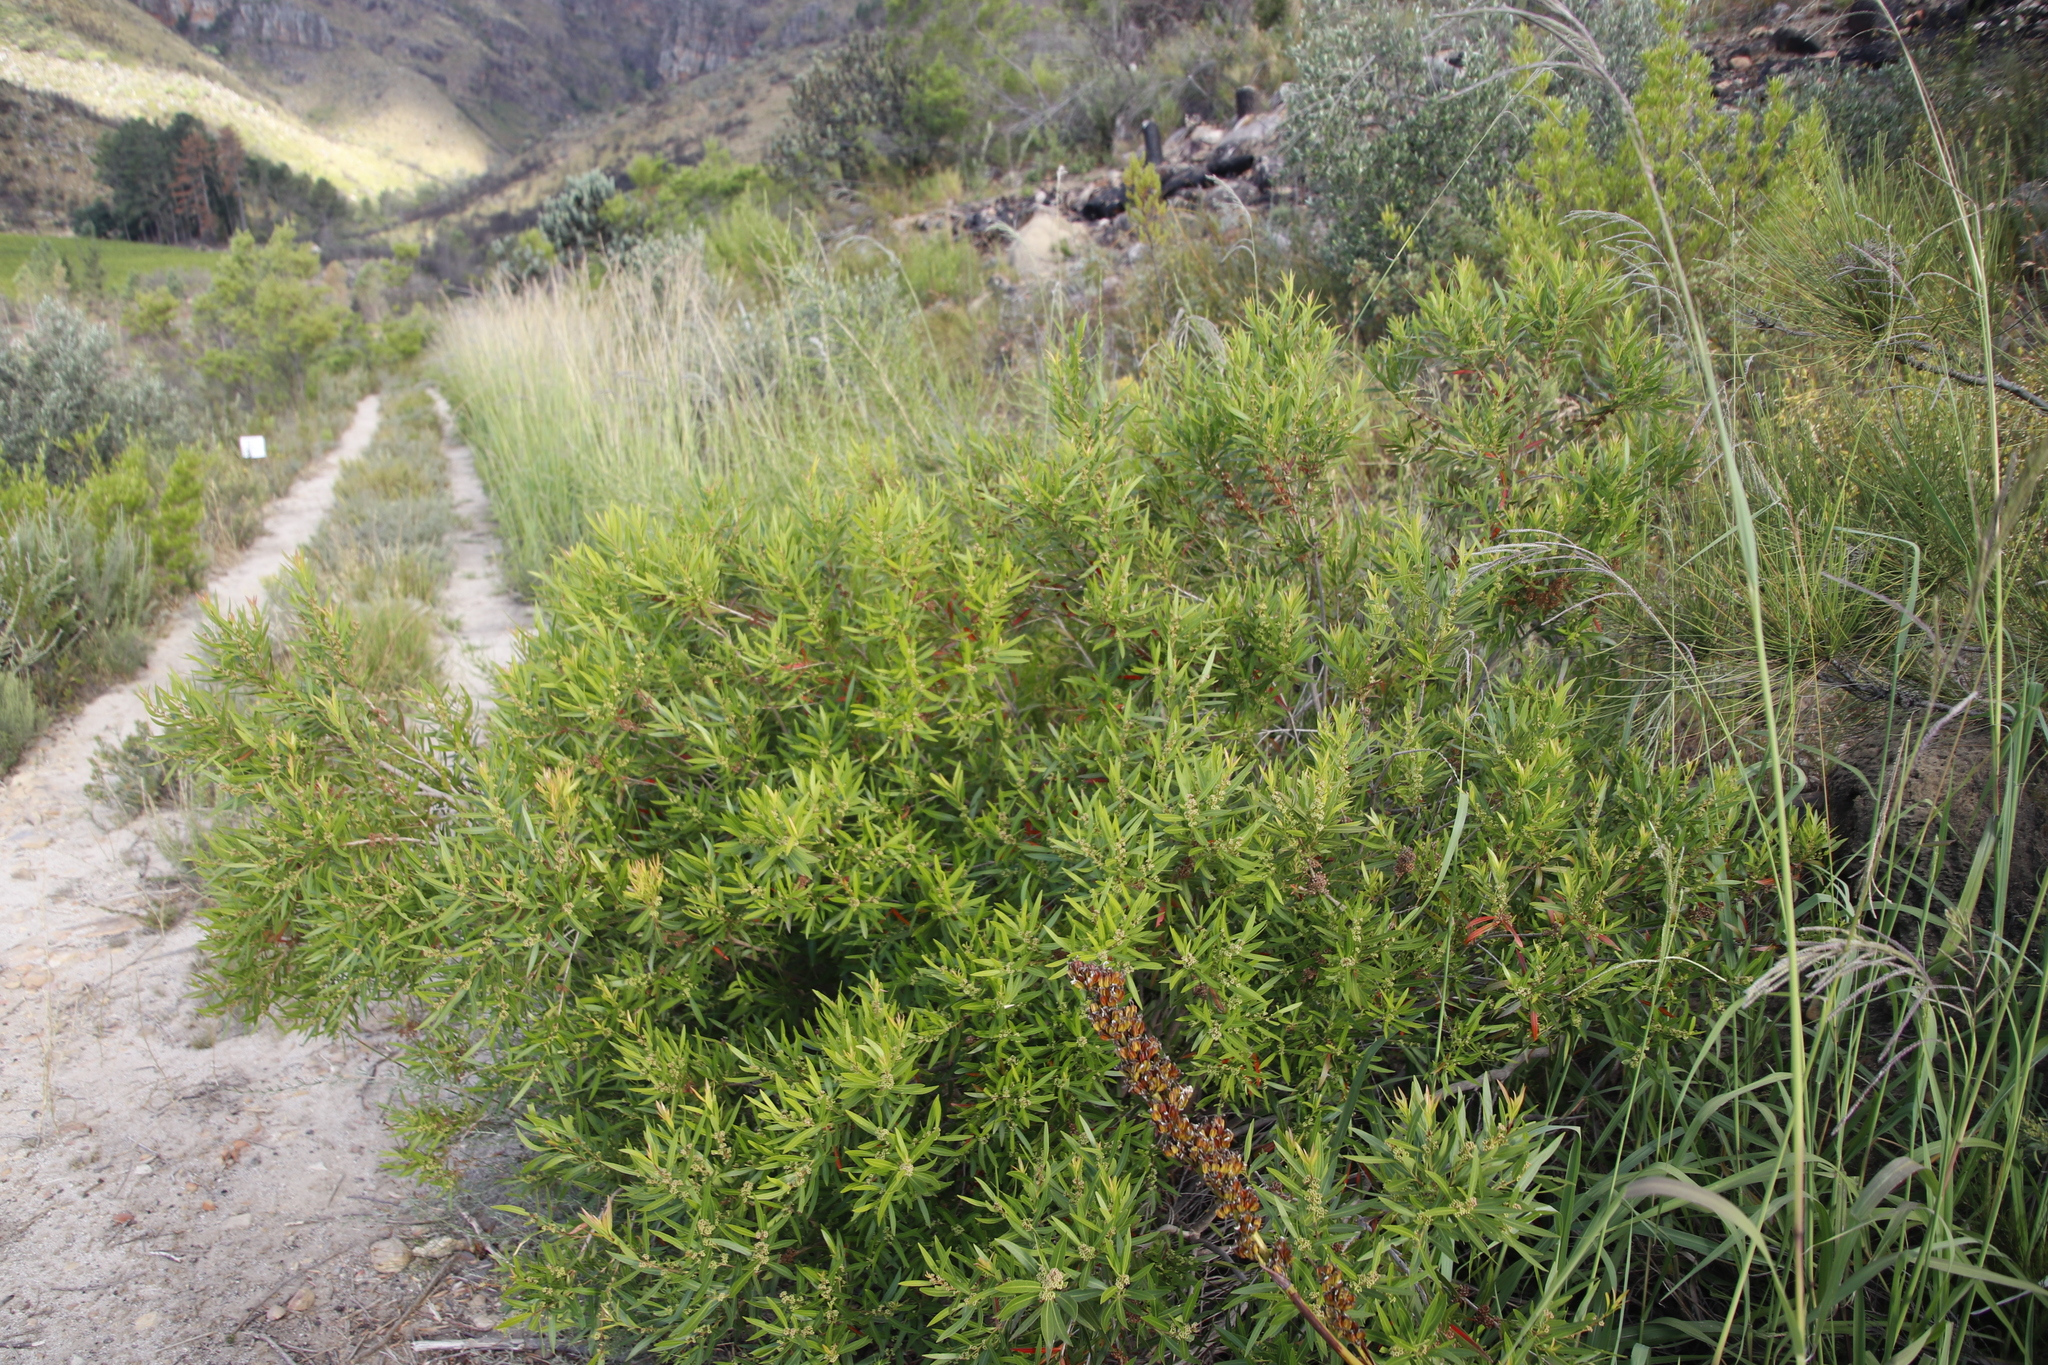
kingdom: Plantae
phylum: Tracheophyta
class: Magnoliopsida
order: Myrtales
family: Myrtaceae
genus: Callistemon
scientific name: Callistemon lanceolatus
